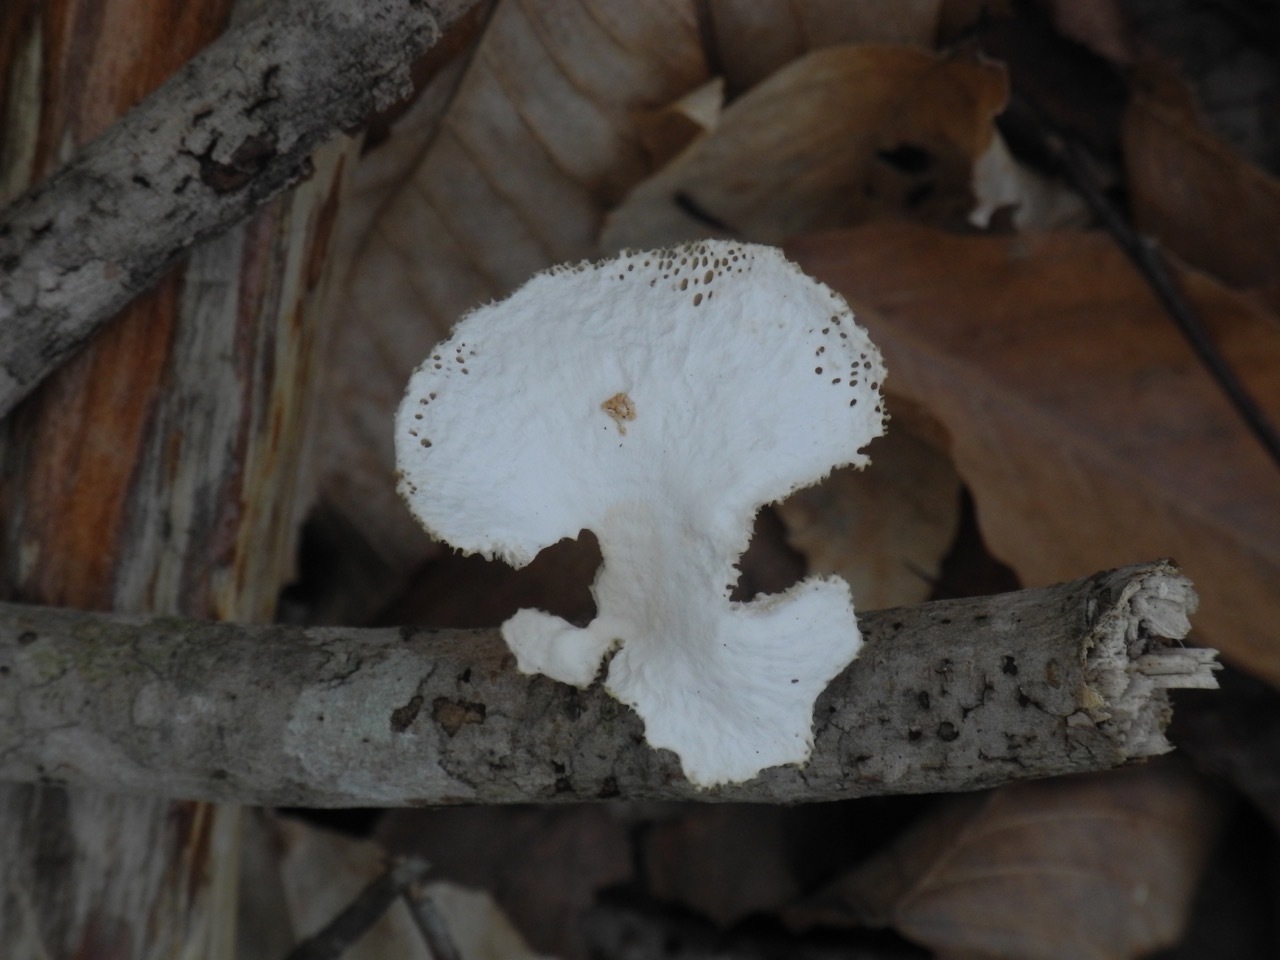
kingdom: Fungi
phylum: Basidiomycota
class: Agaricomycetes
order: Polyporales
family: Polyporaceae
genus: Neofavolus
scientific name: Neofavolus alveolaris
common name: Hexagonal-pored polypore
